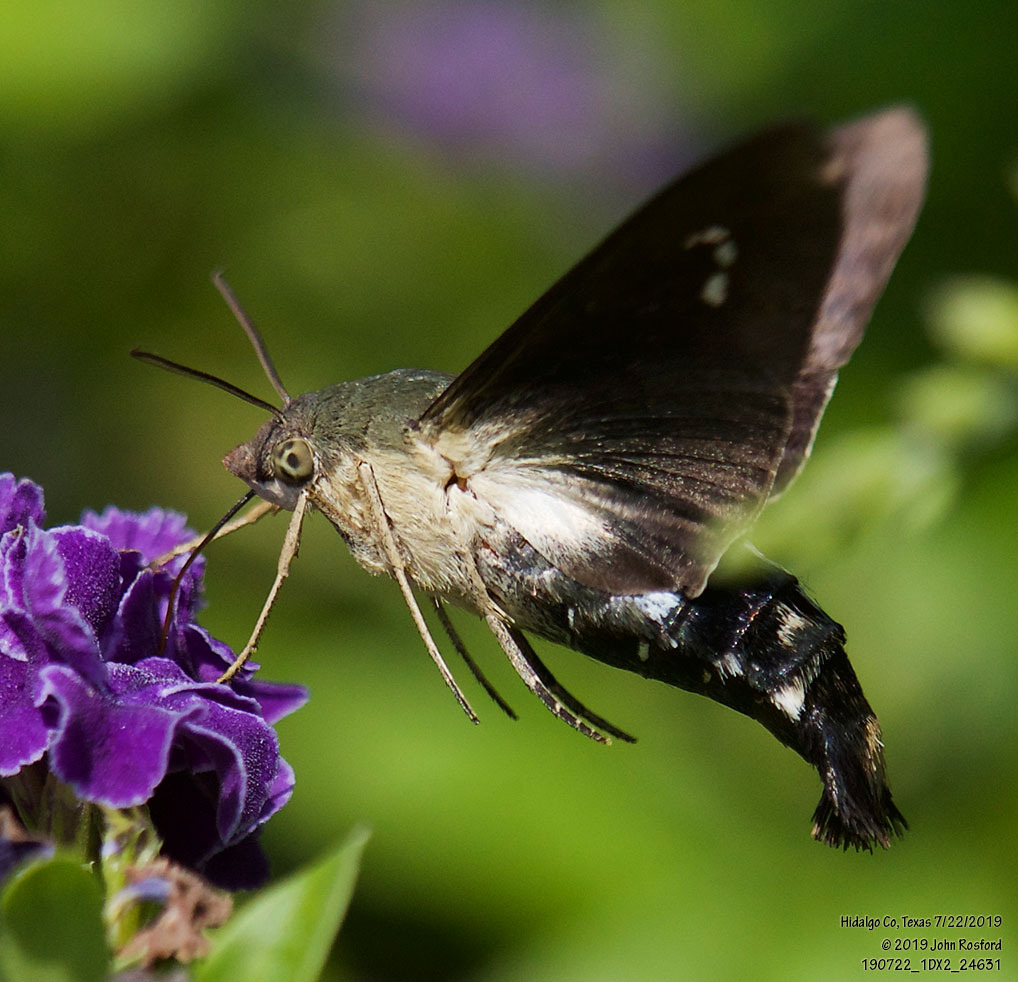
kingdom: Animalia
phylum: Arthropoda
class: Insecta
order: Lepidoptera
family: Sphingidae
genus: Aellopos
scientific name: Aellopos clavipes
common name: Clavipes sphinx
